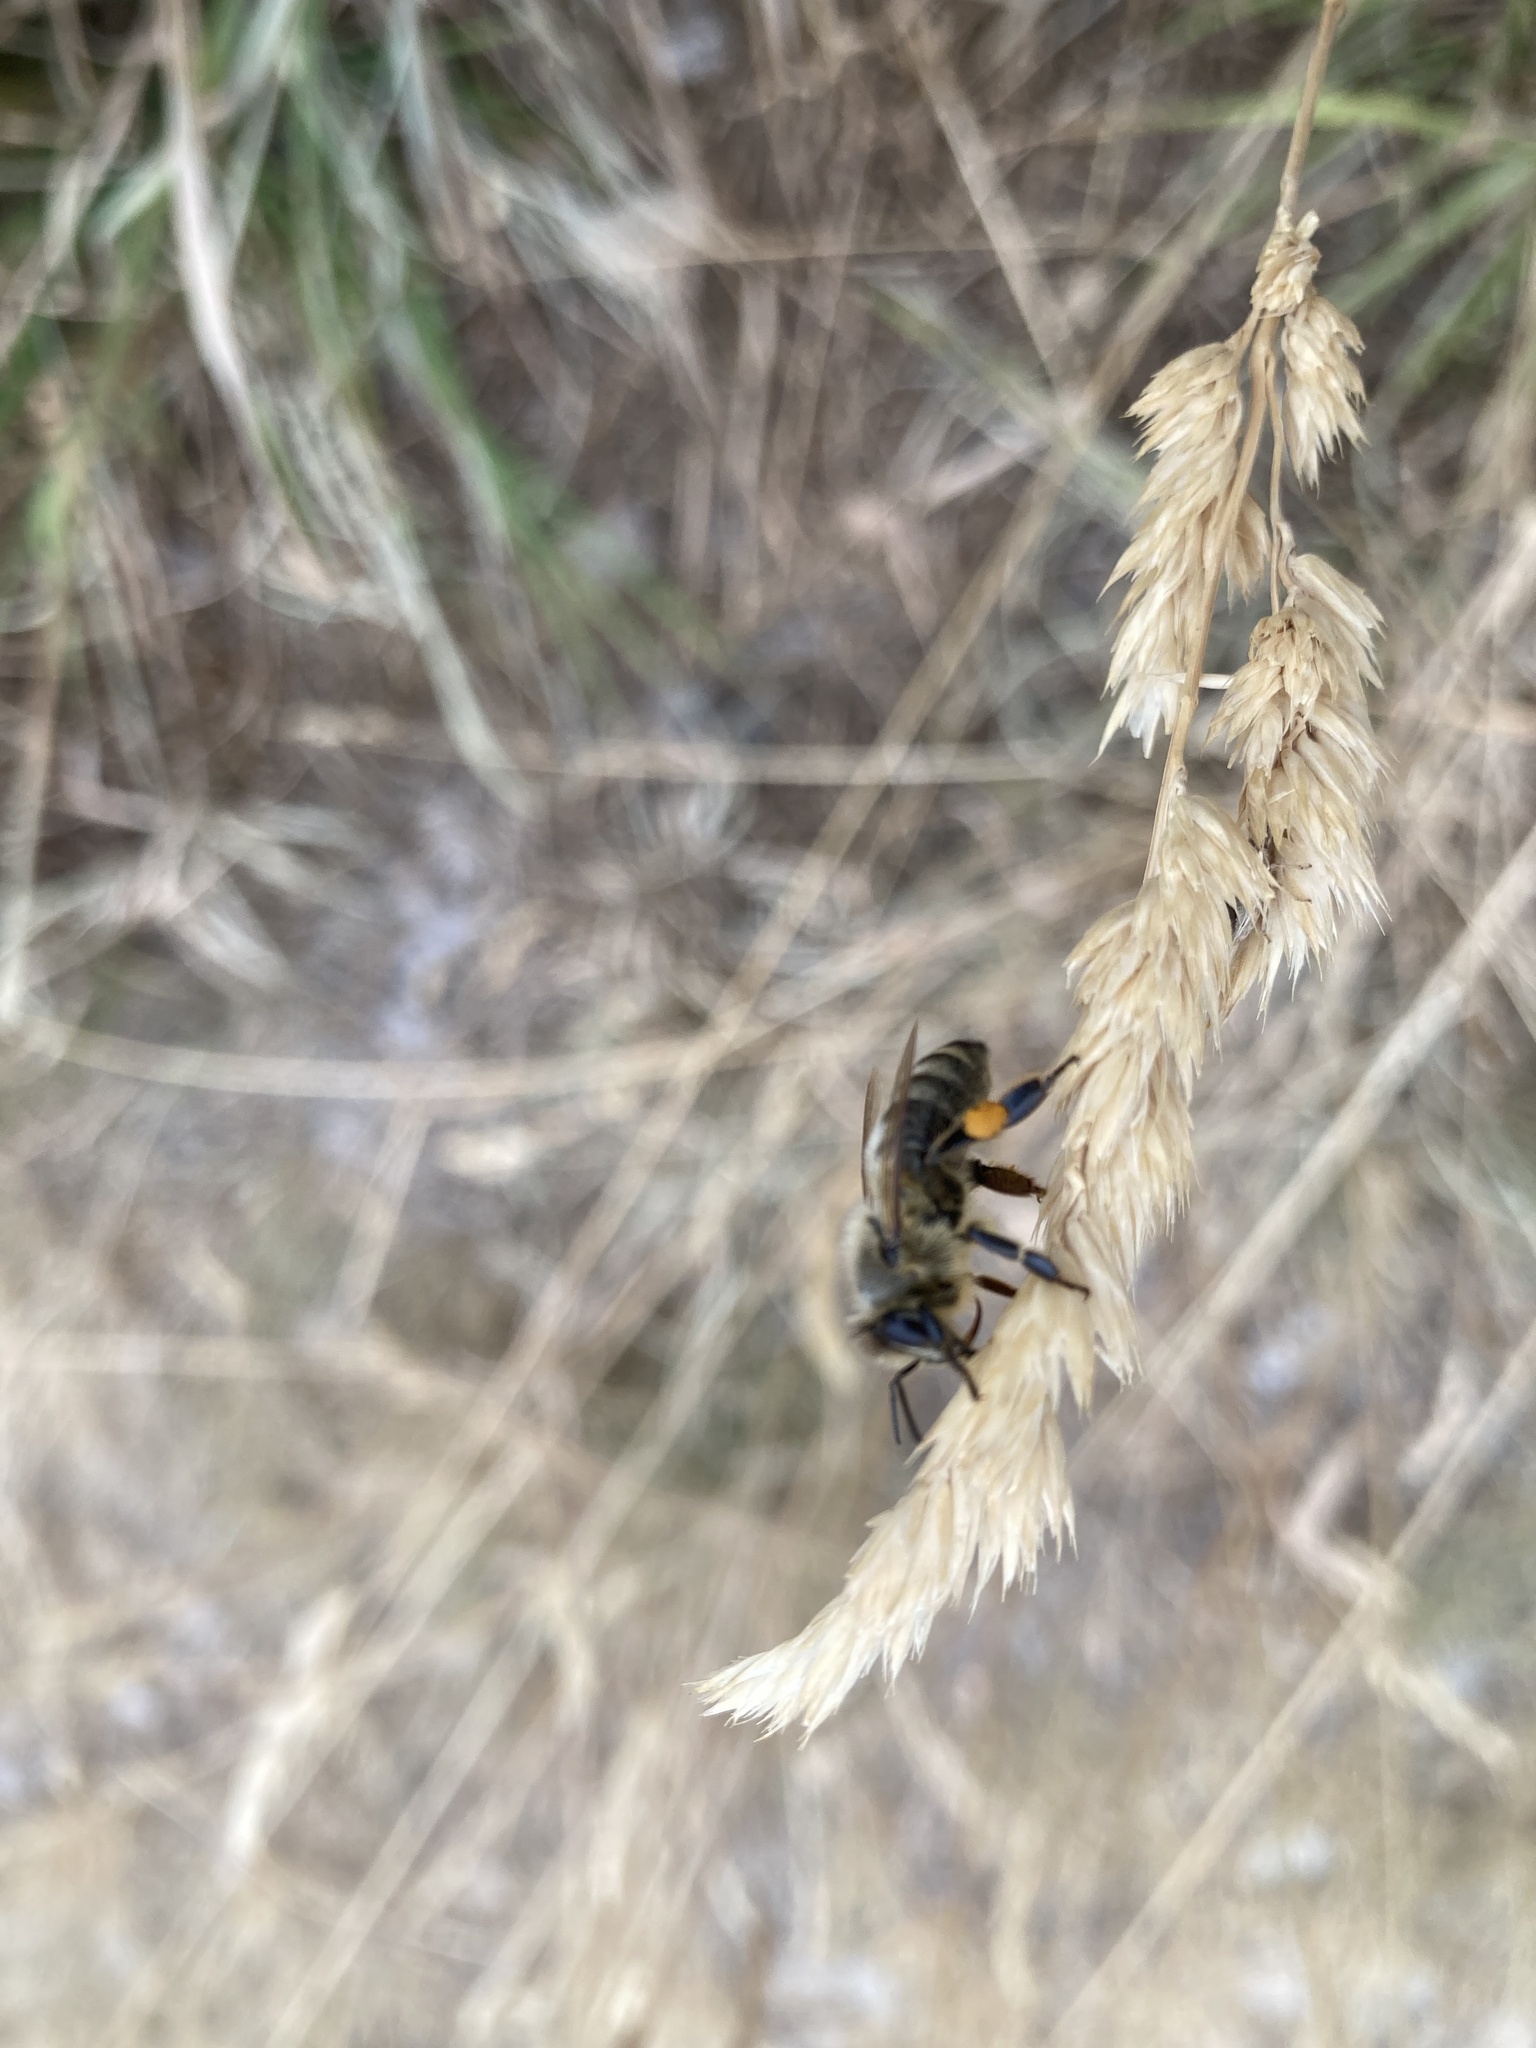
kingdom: Animalia
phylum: Arthropoda
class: Insecta
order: Hymenoptera
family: Apidae
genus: Apis
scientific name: Apis mellifera
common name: Honey bee
